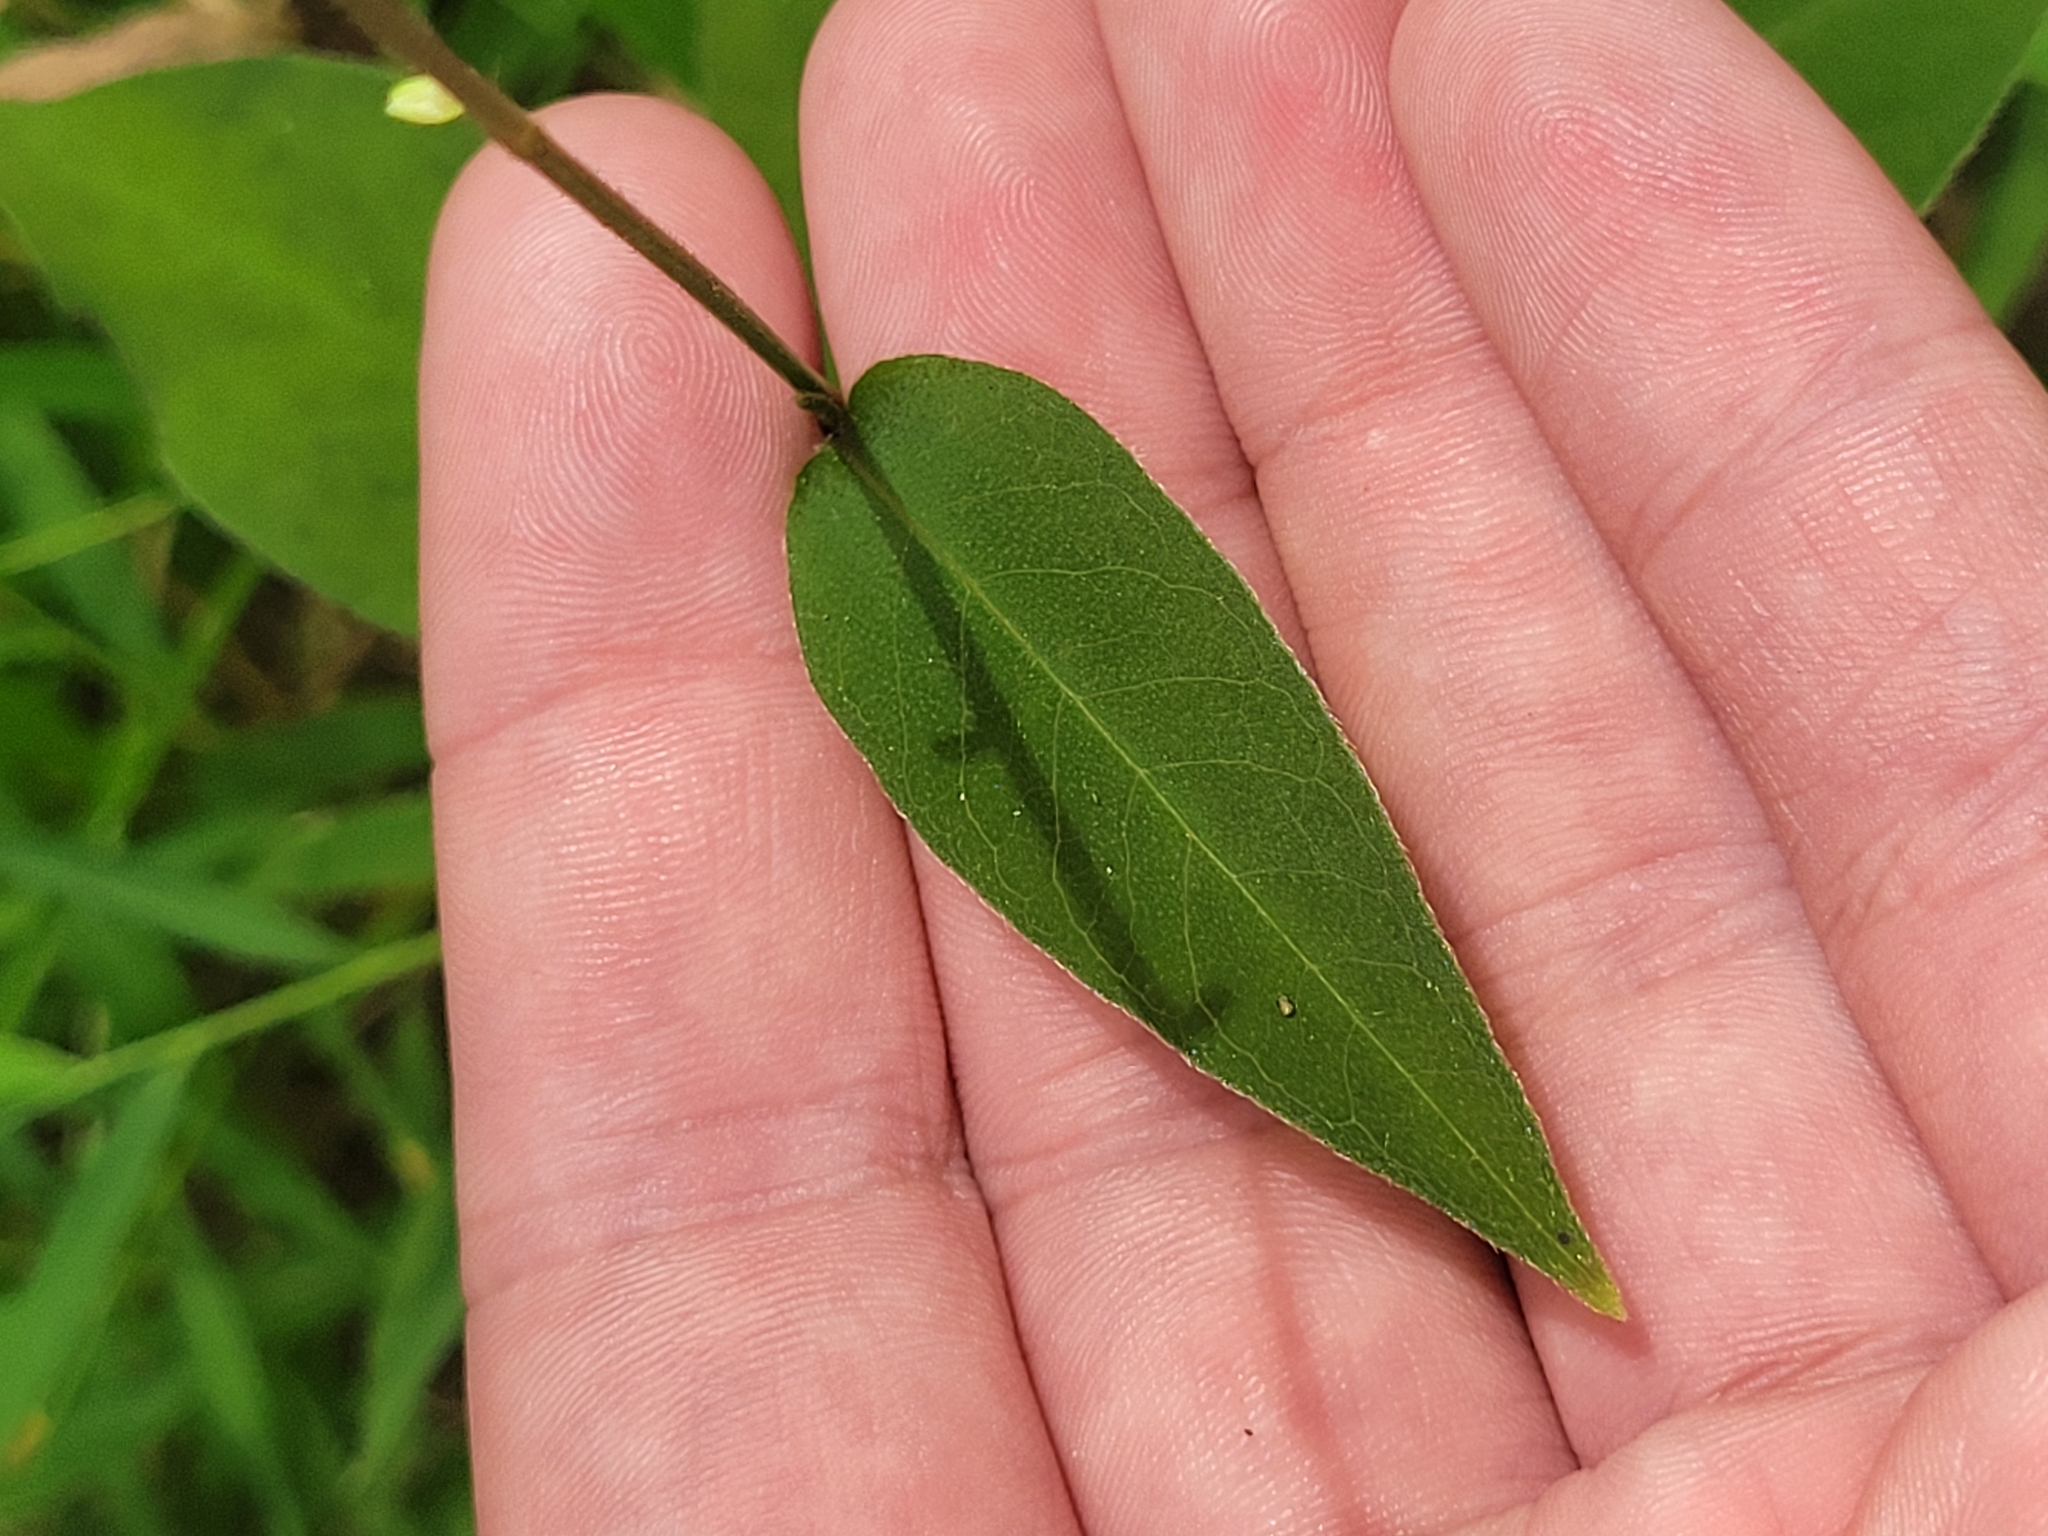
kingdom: Plantae
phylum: Tracheophyta
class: Magnoliopsida
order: Caryophyllales
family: Polygonaceae
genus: Persicaria
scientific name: Persicaria virginiana
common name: Jumpseed
